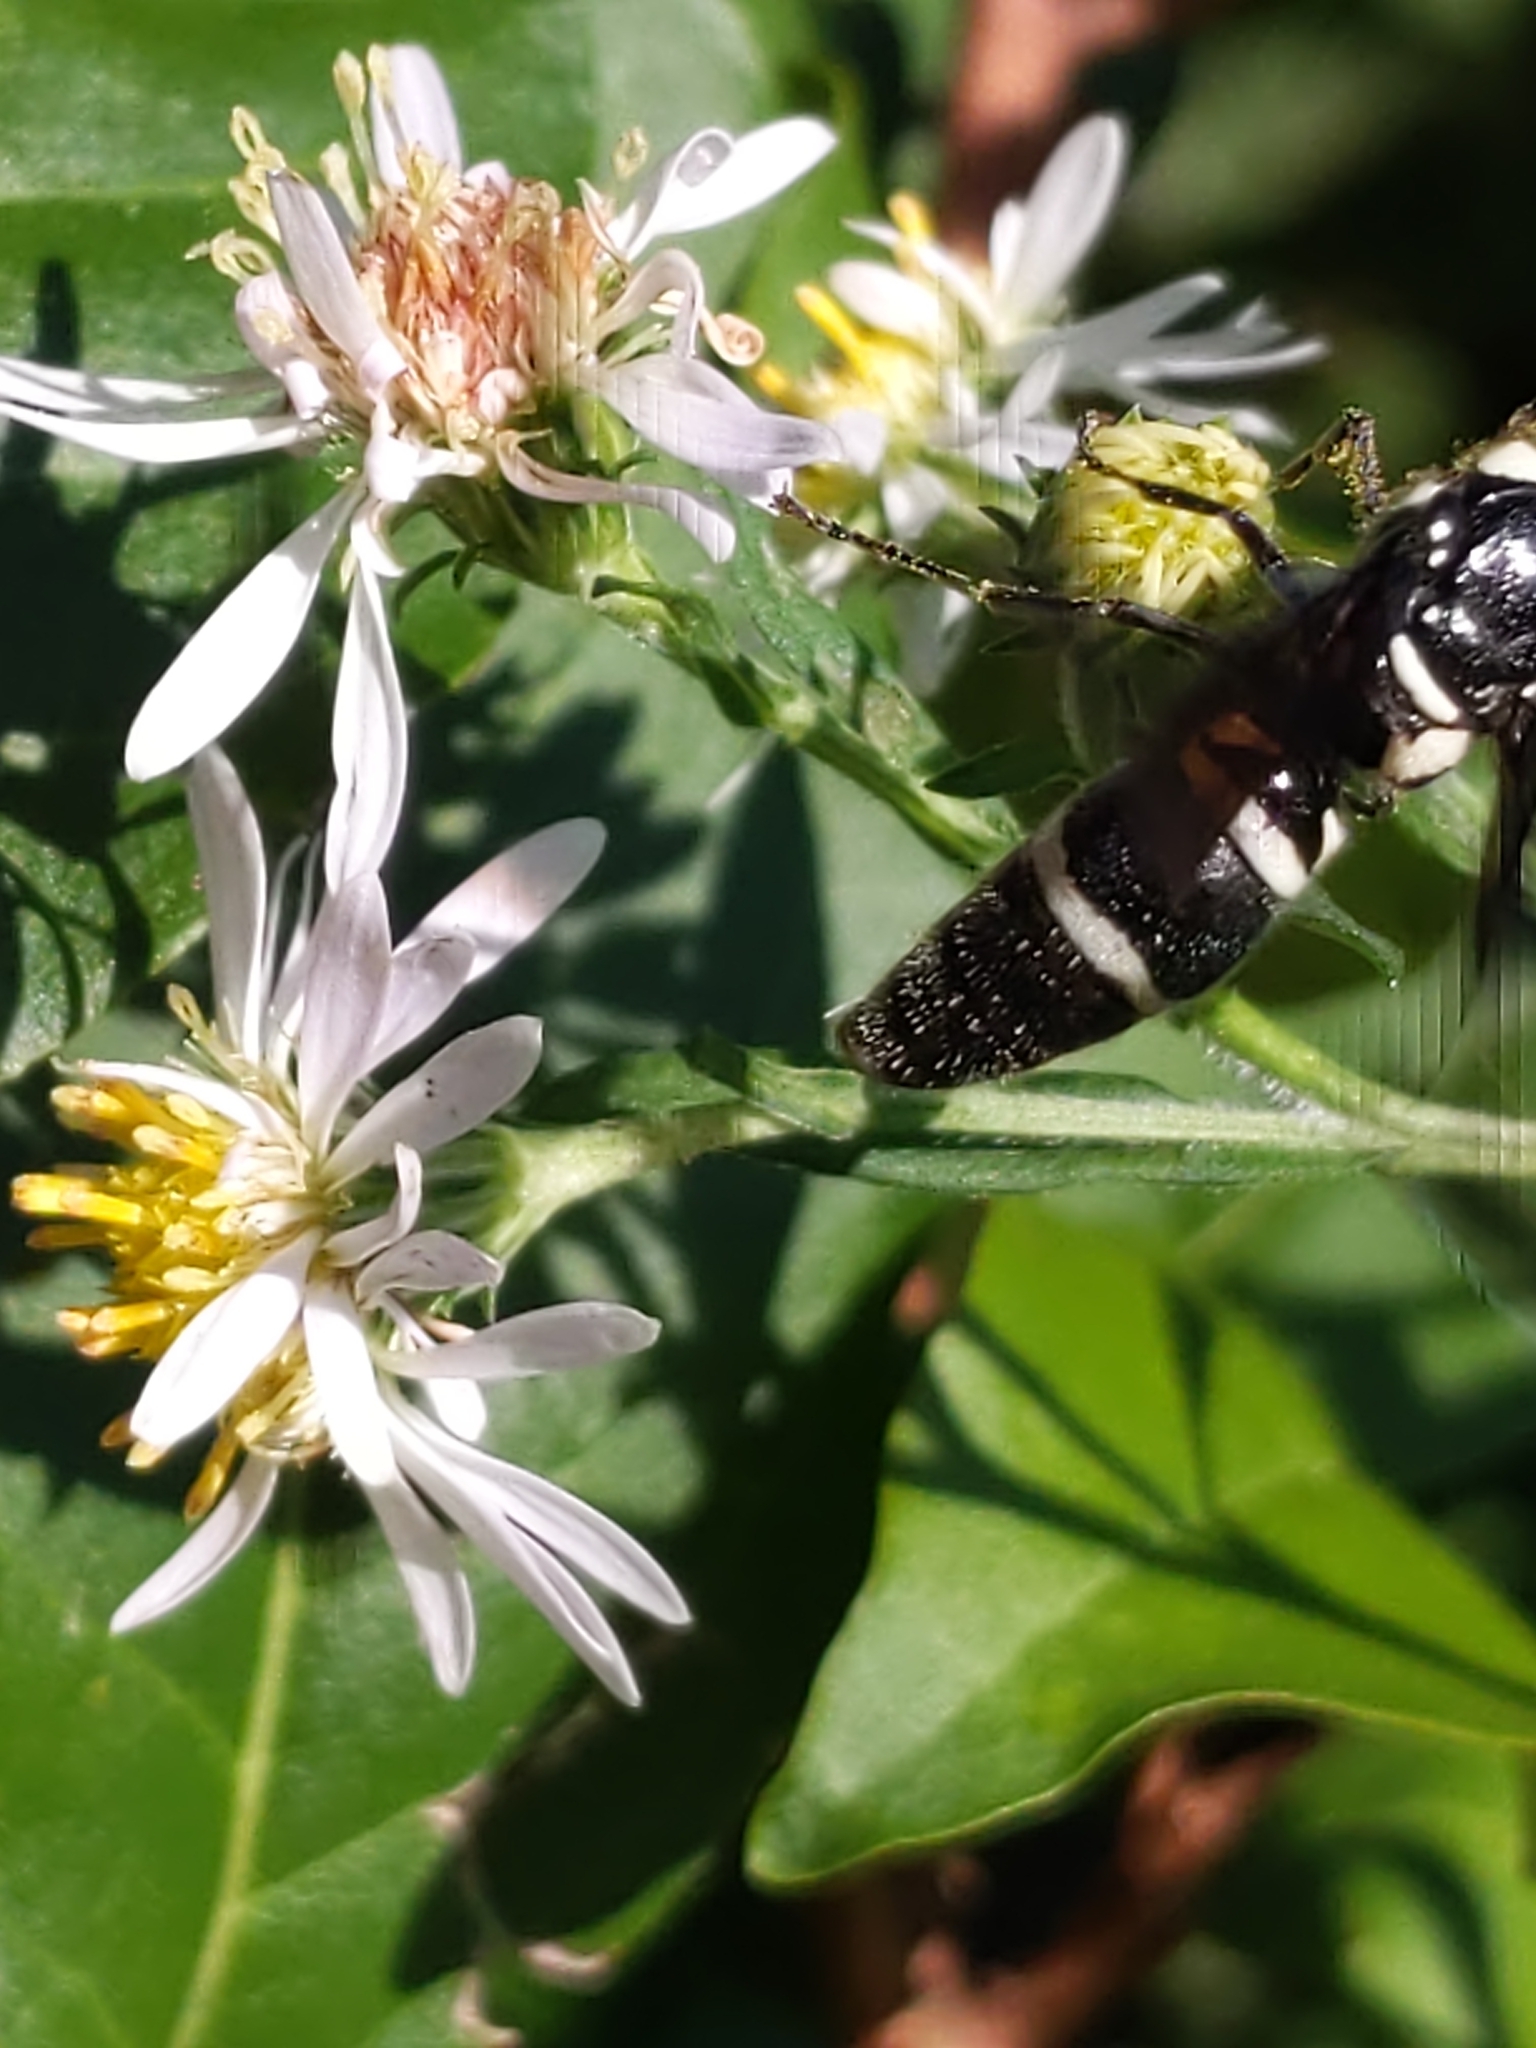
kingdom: Animalia
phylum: Arthropoda
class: Insecta
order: Hymenoptera
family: Eumenidae
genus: Pseudodynerus
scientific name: Pseudodynerus quadrisectus
